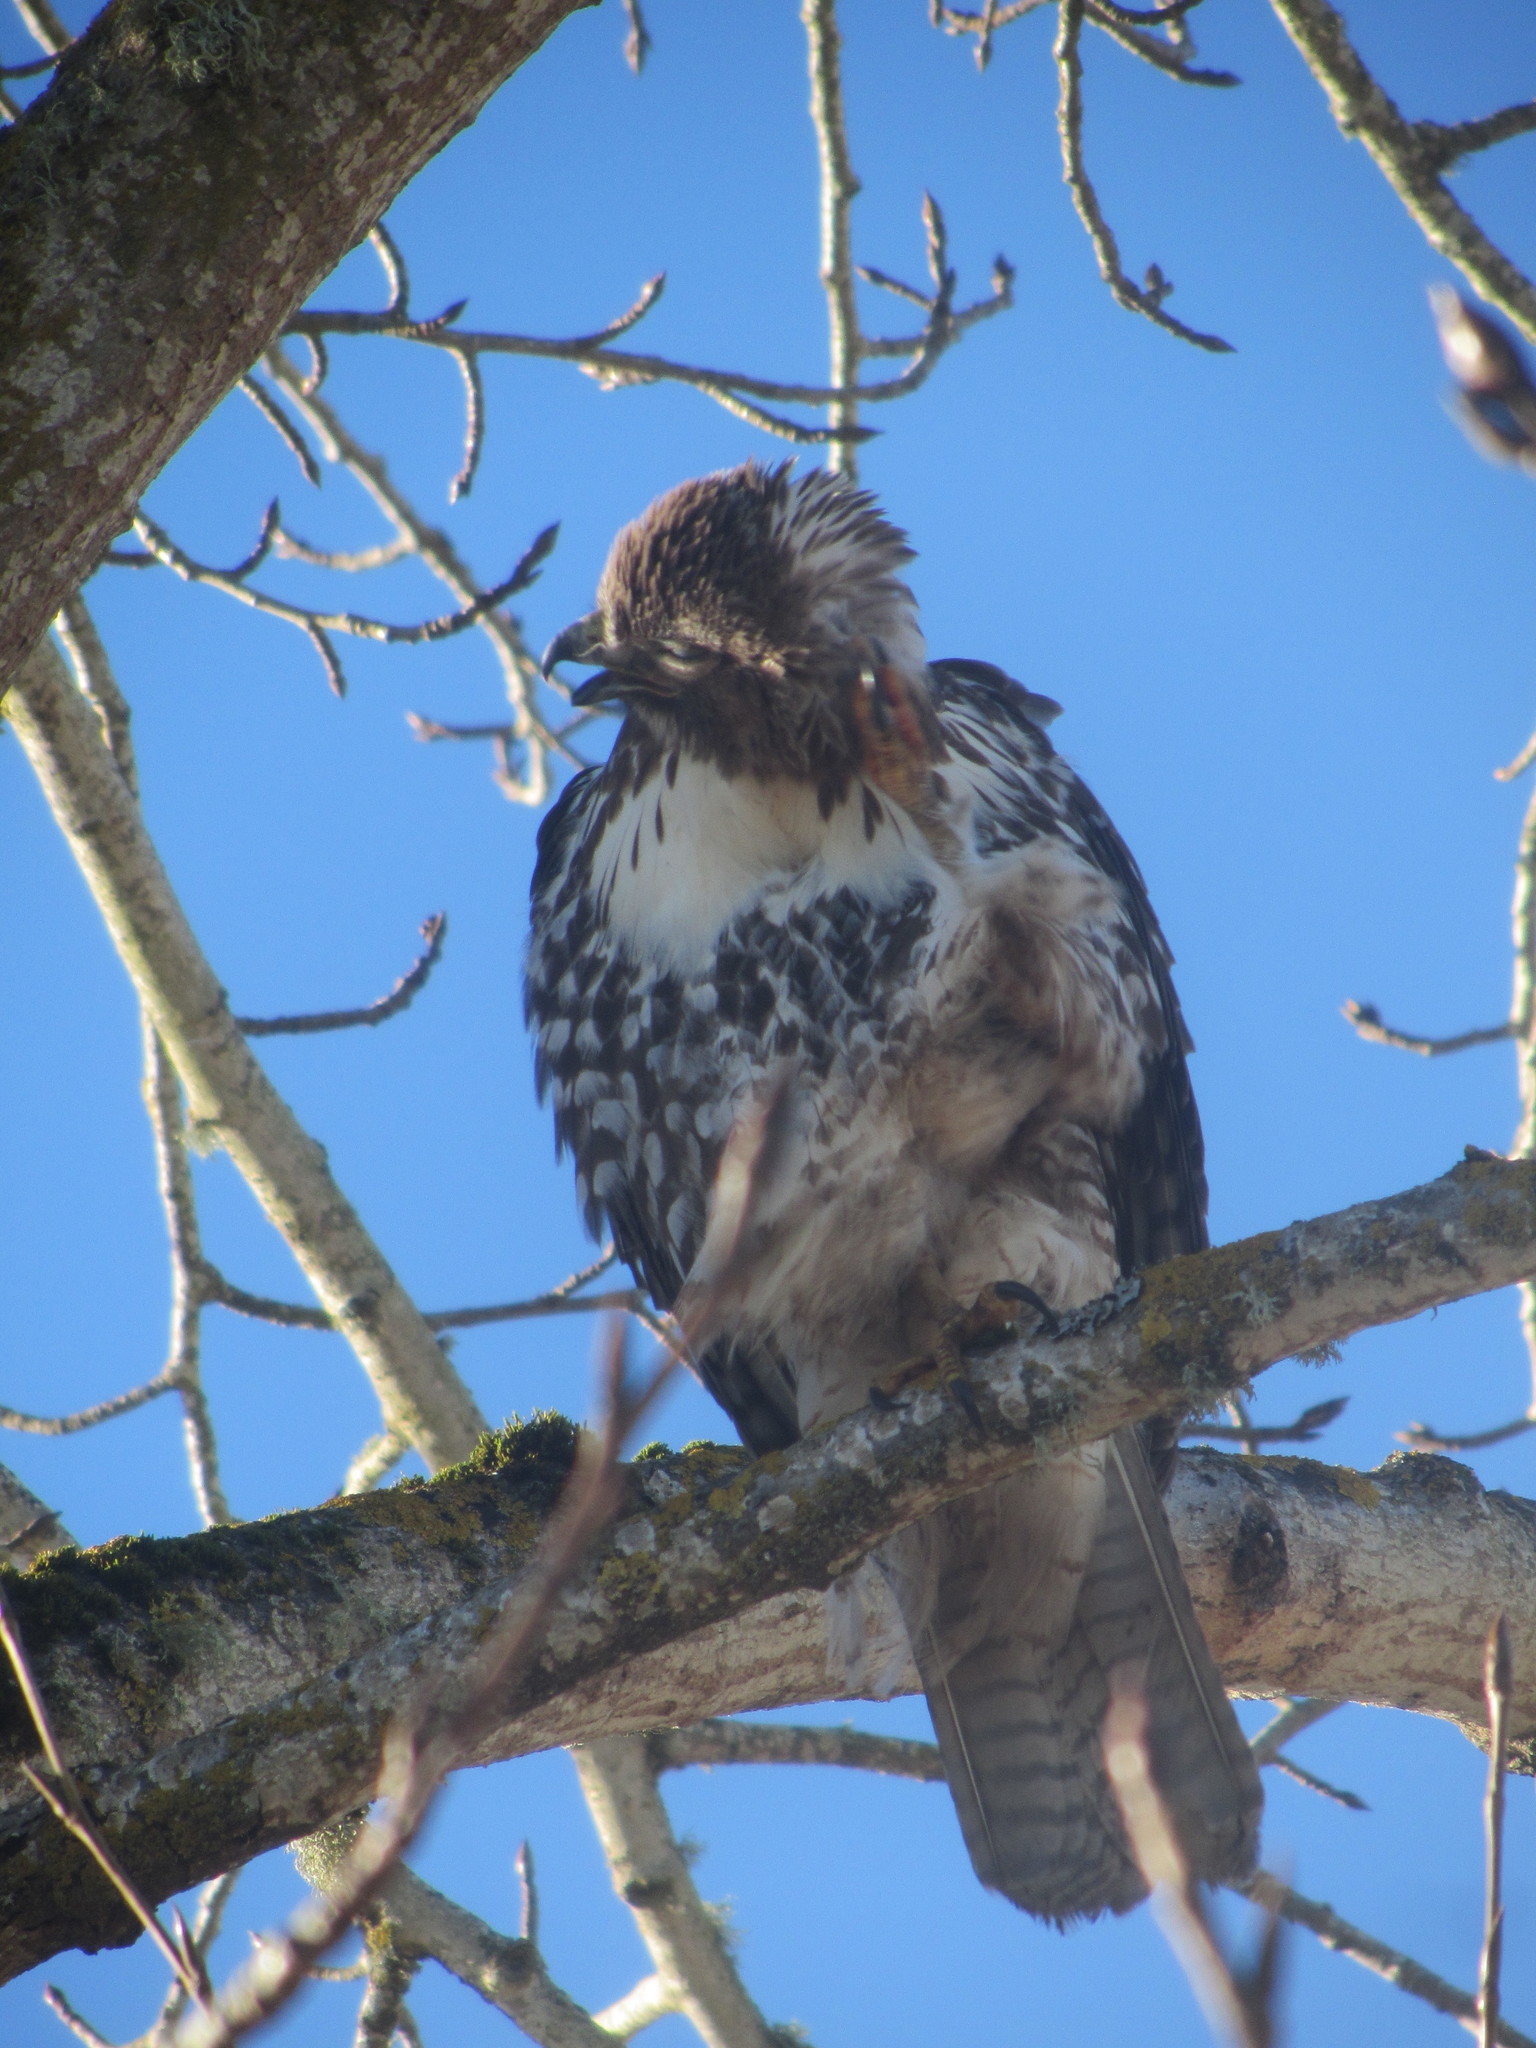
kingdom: Animalia
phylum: Chordata
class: Aves
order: Accipitriformes
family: Accipitridae
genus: Buteo
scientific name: Buteo jamaicensis
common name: Red-tailed hawk
